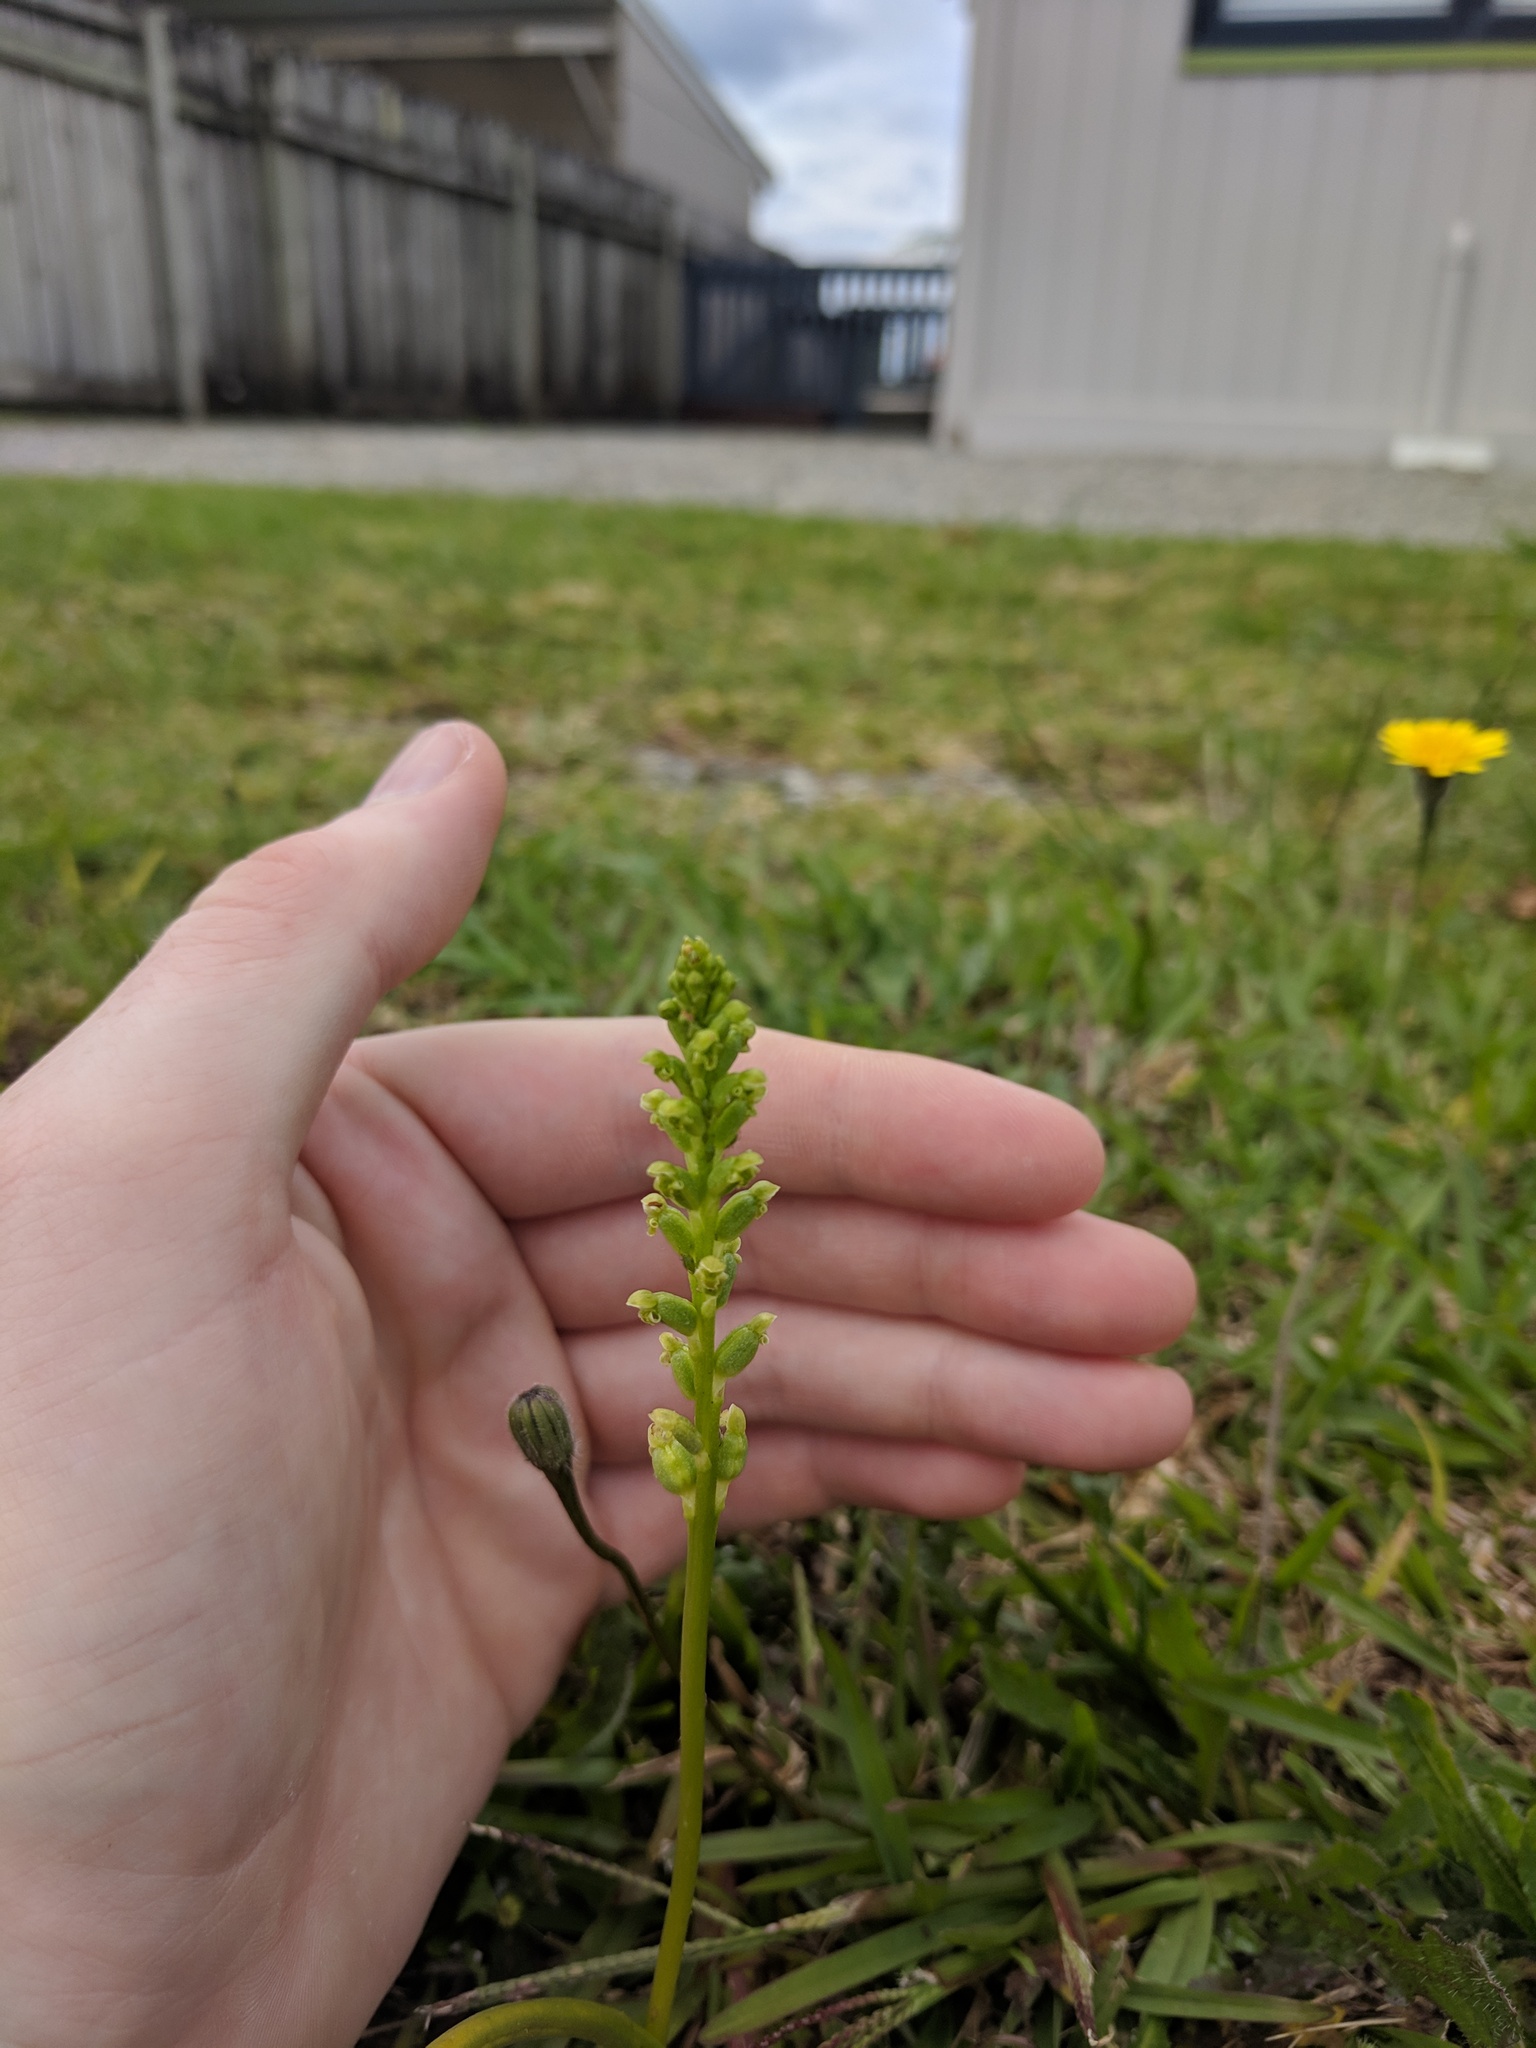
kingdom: Plantae
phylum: Tracheophyta
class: Liliopsida
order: Asparagales
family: Orchidaceae
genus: Microtis
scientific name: Microtis unifolia
